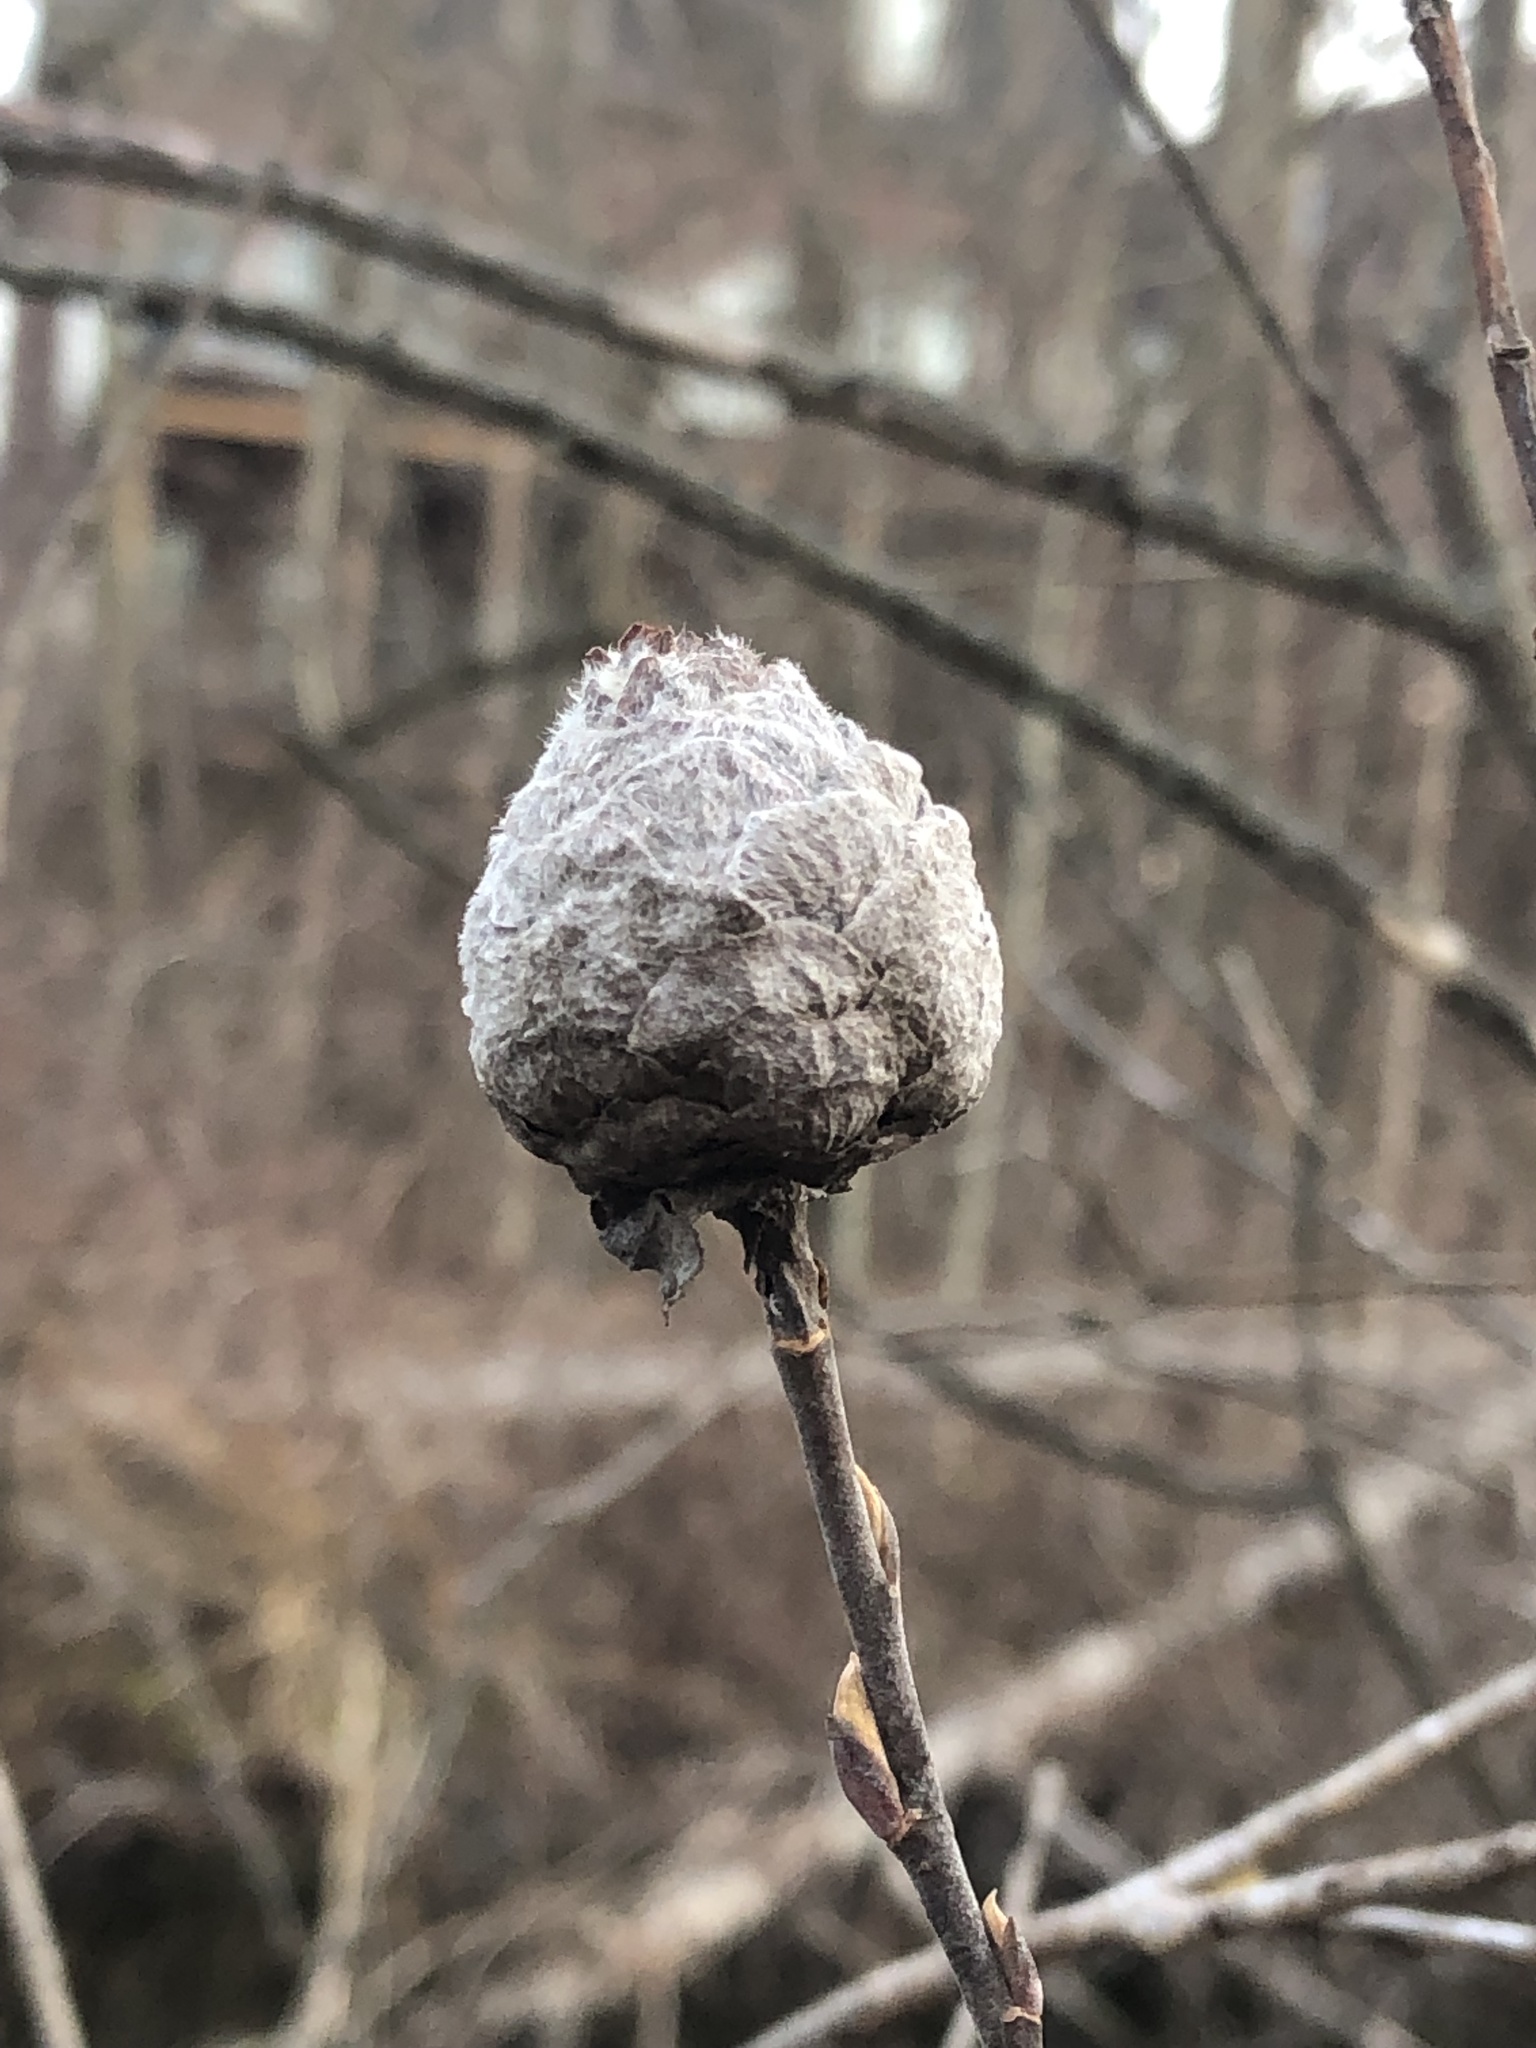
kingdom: Animalia
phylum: Arthropoda
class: Insecta
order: Diptera
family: Cecidomyiidae
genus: Rabdophaga
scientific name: Rabdophaga strobiloides
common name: Willow pinecone gall midge
